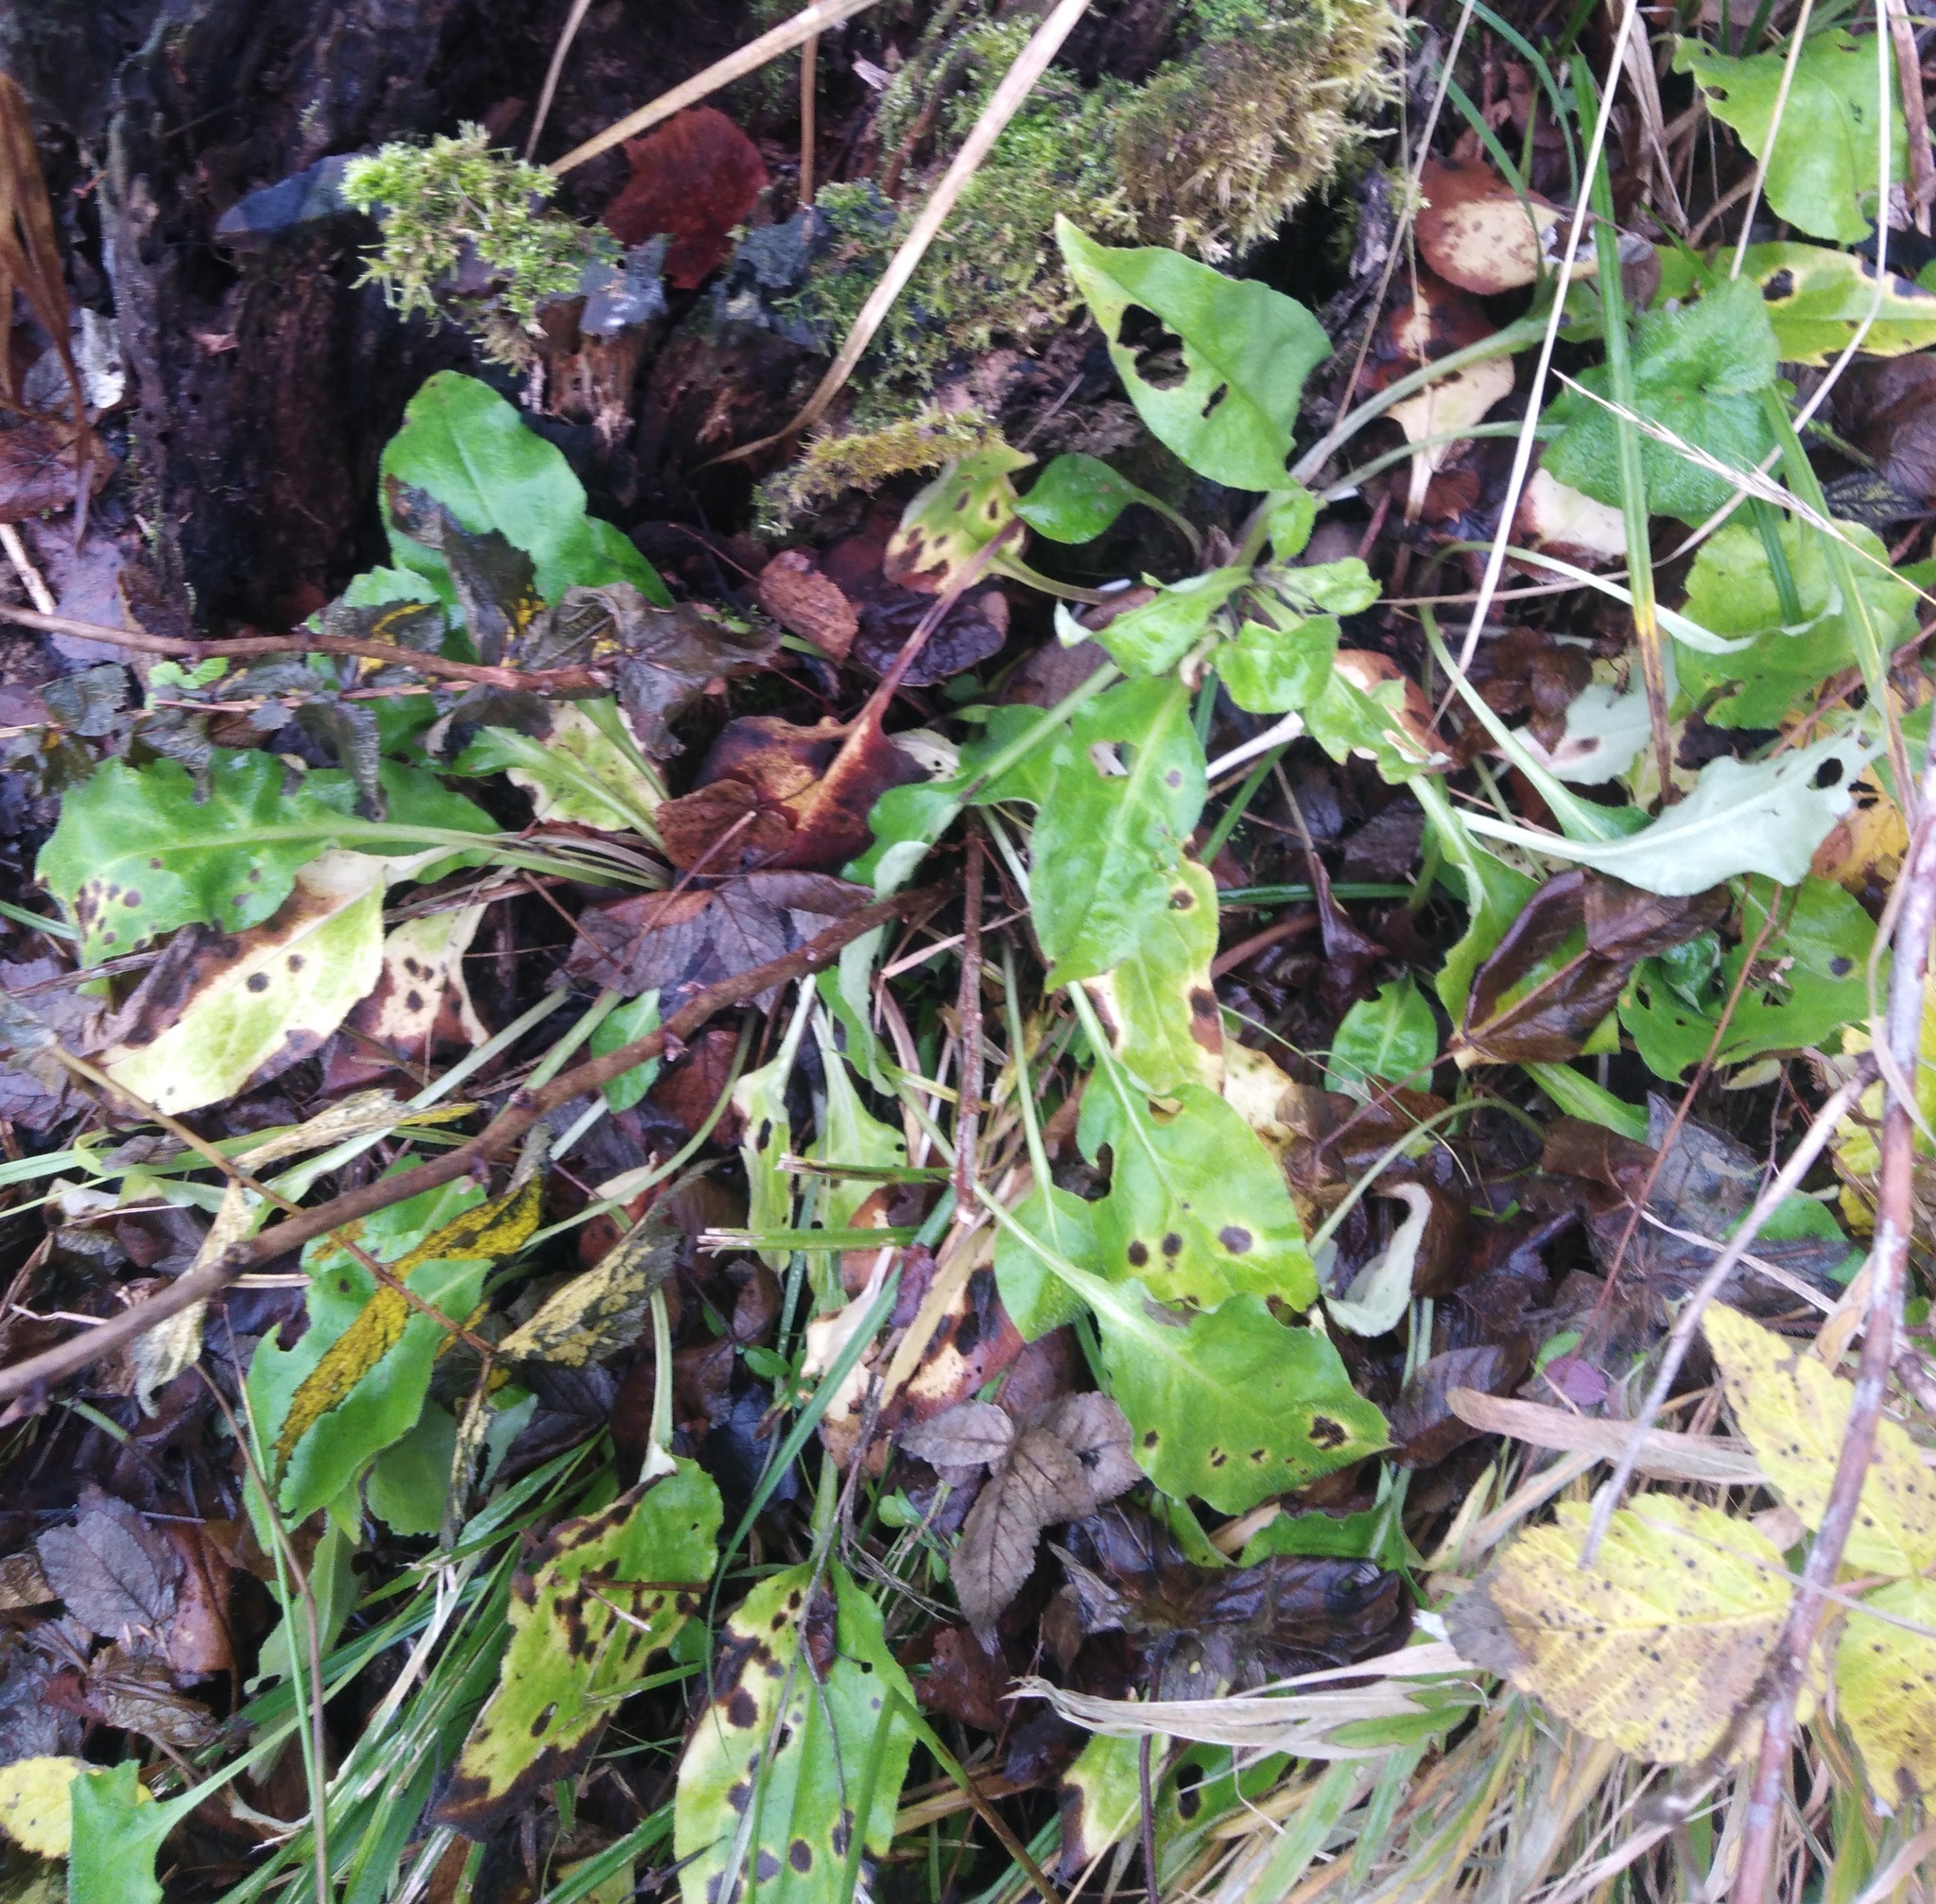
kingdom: Plantae
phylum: Tracheophyta
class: Magnoliopsida
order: Boraginales
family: Boraginaceae
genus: Pulmonaria
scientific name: Pulmonaria obscura
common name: Suffolk lungwort
